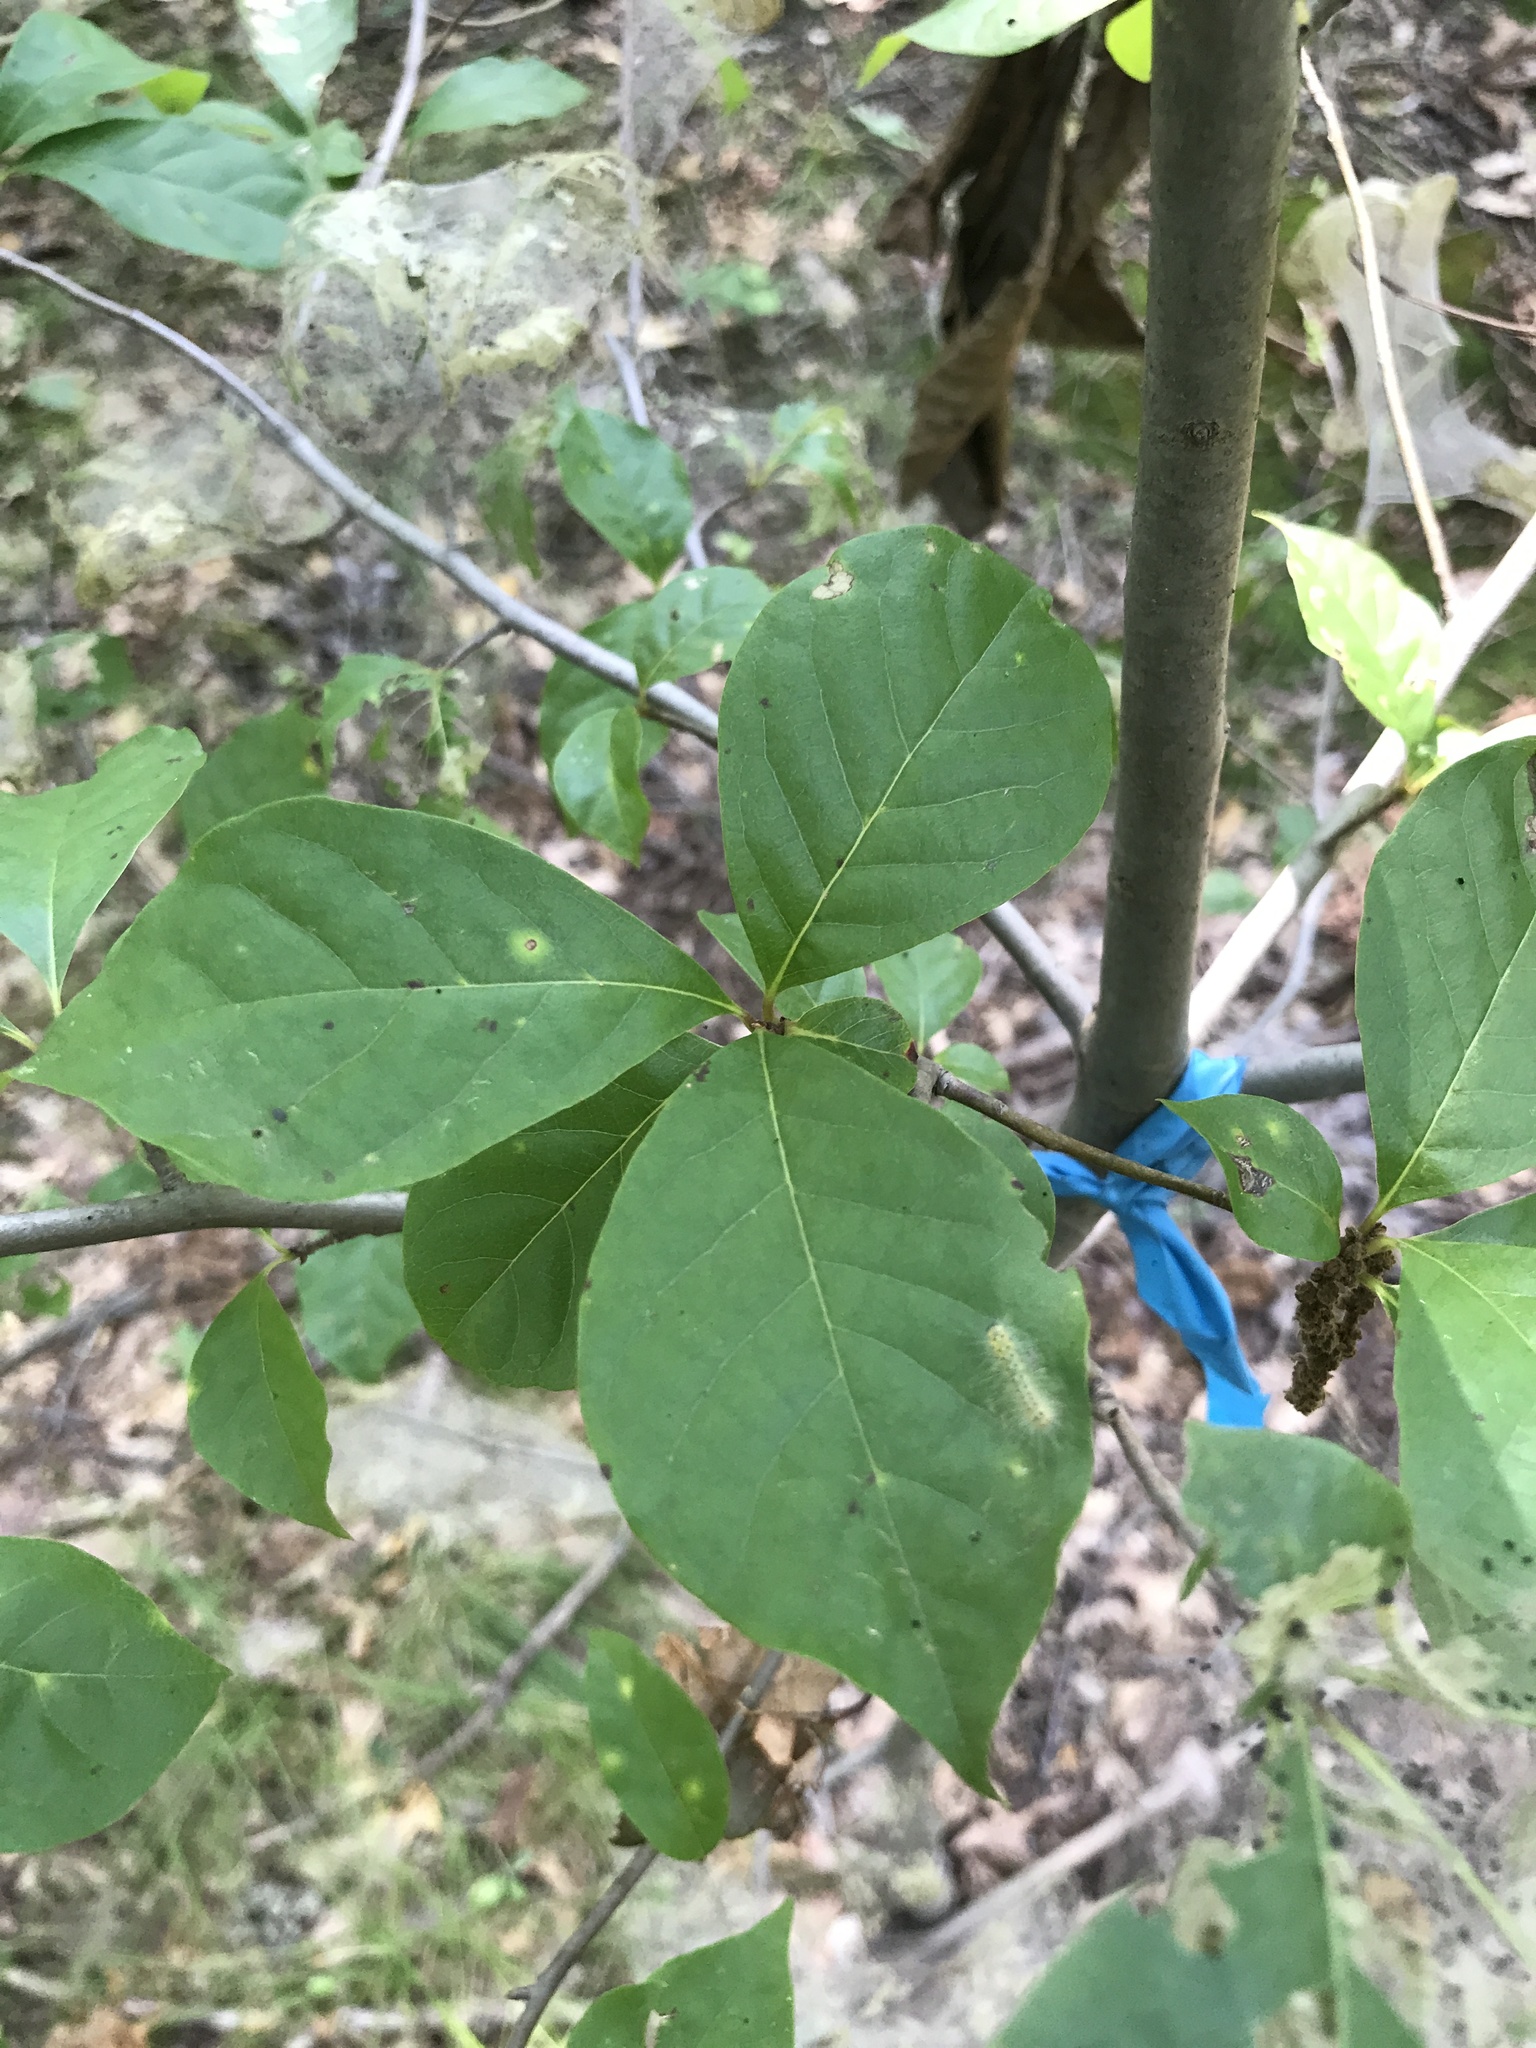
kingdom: Plantae
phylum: Tracheophyta
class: Magnoliopsida
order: Cornales
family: Nyssaceae
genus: Nyssa
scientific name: Nyssa sylvatica
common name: Black tupelo
